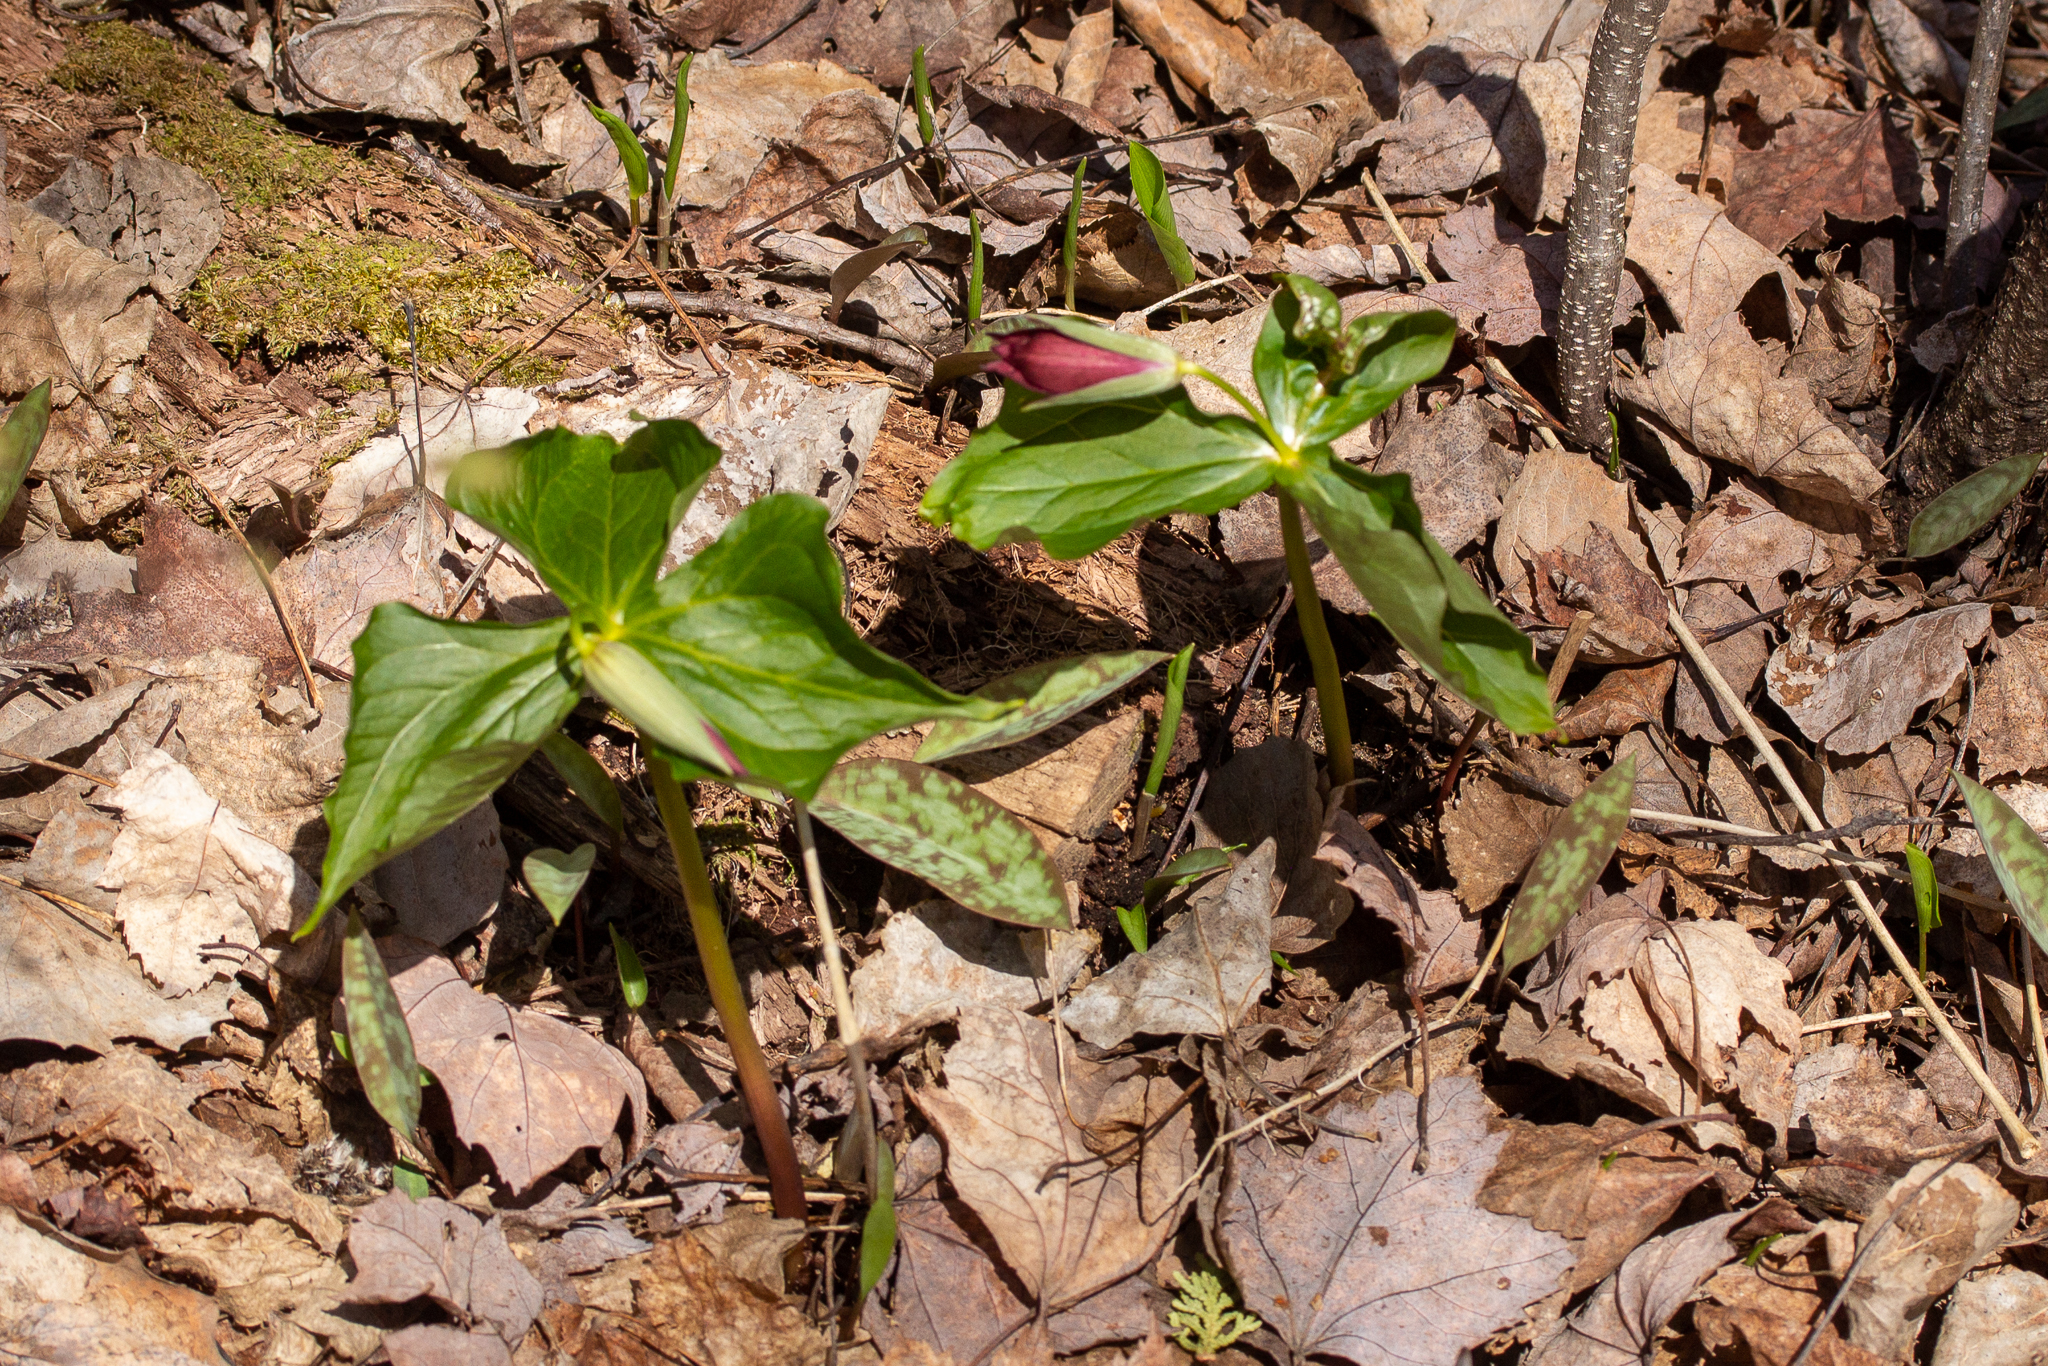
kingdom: Plantae
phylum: Tracheophyta
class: Liliopsida
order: Liliales
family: Melanthiaceae
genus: Trillium
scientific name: Trillium erectum
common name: Purple trillium
